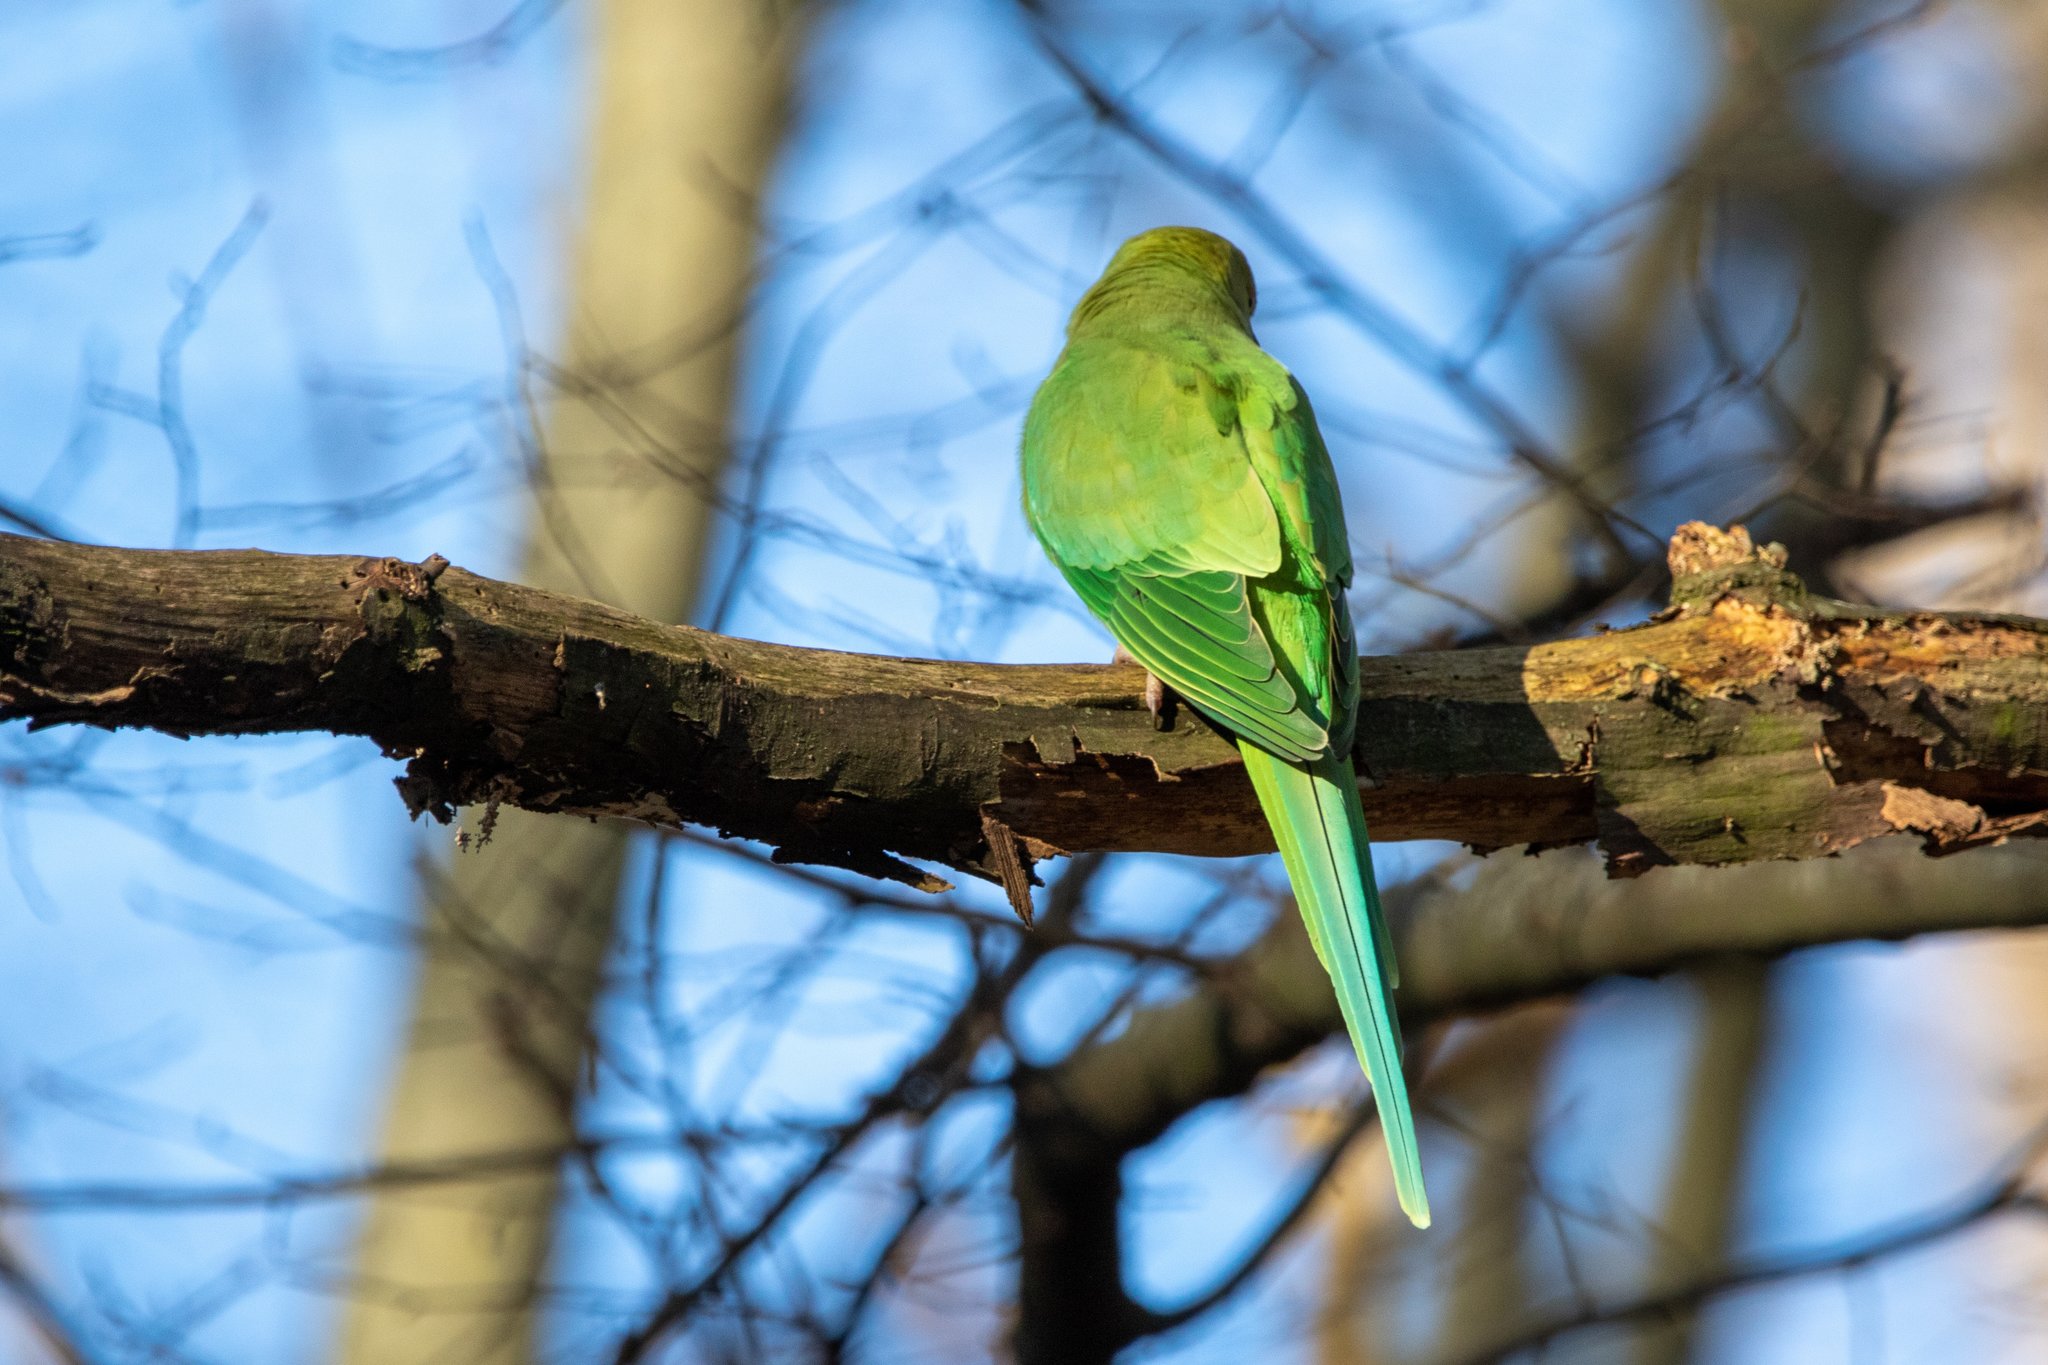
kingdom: Animalia
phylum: Chordata
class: Aves
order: Psittaciformes
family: Psittacidae
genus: Psittacula
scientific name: Psittacula krameri
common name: Rose-ringed parakeet
